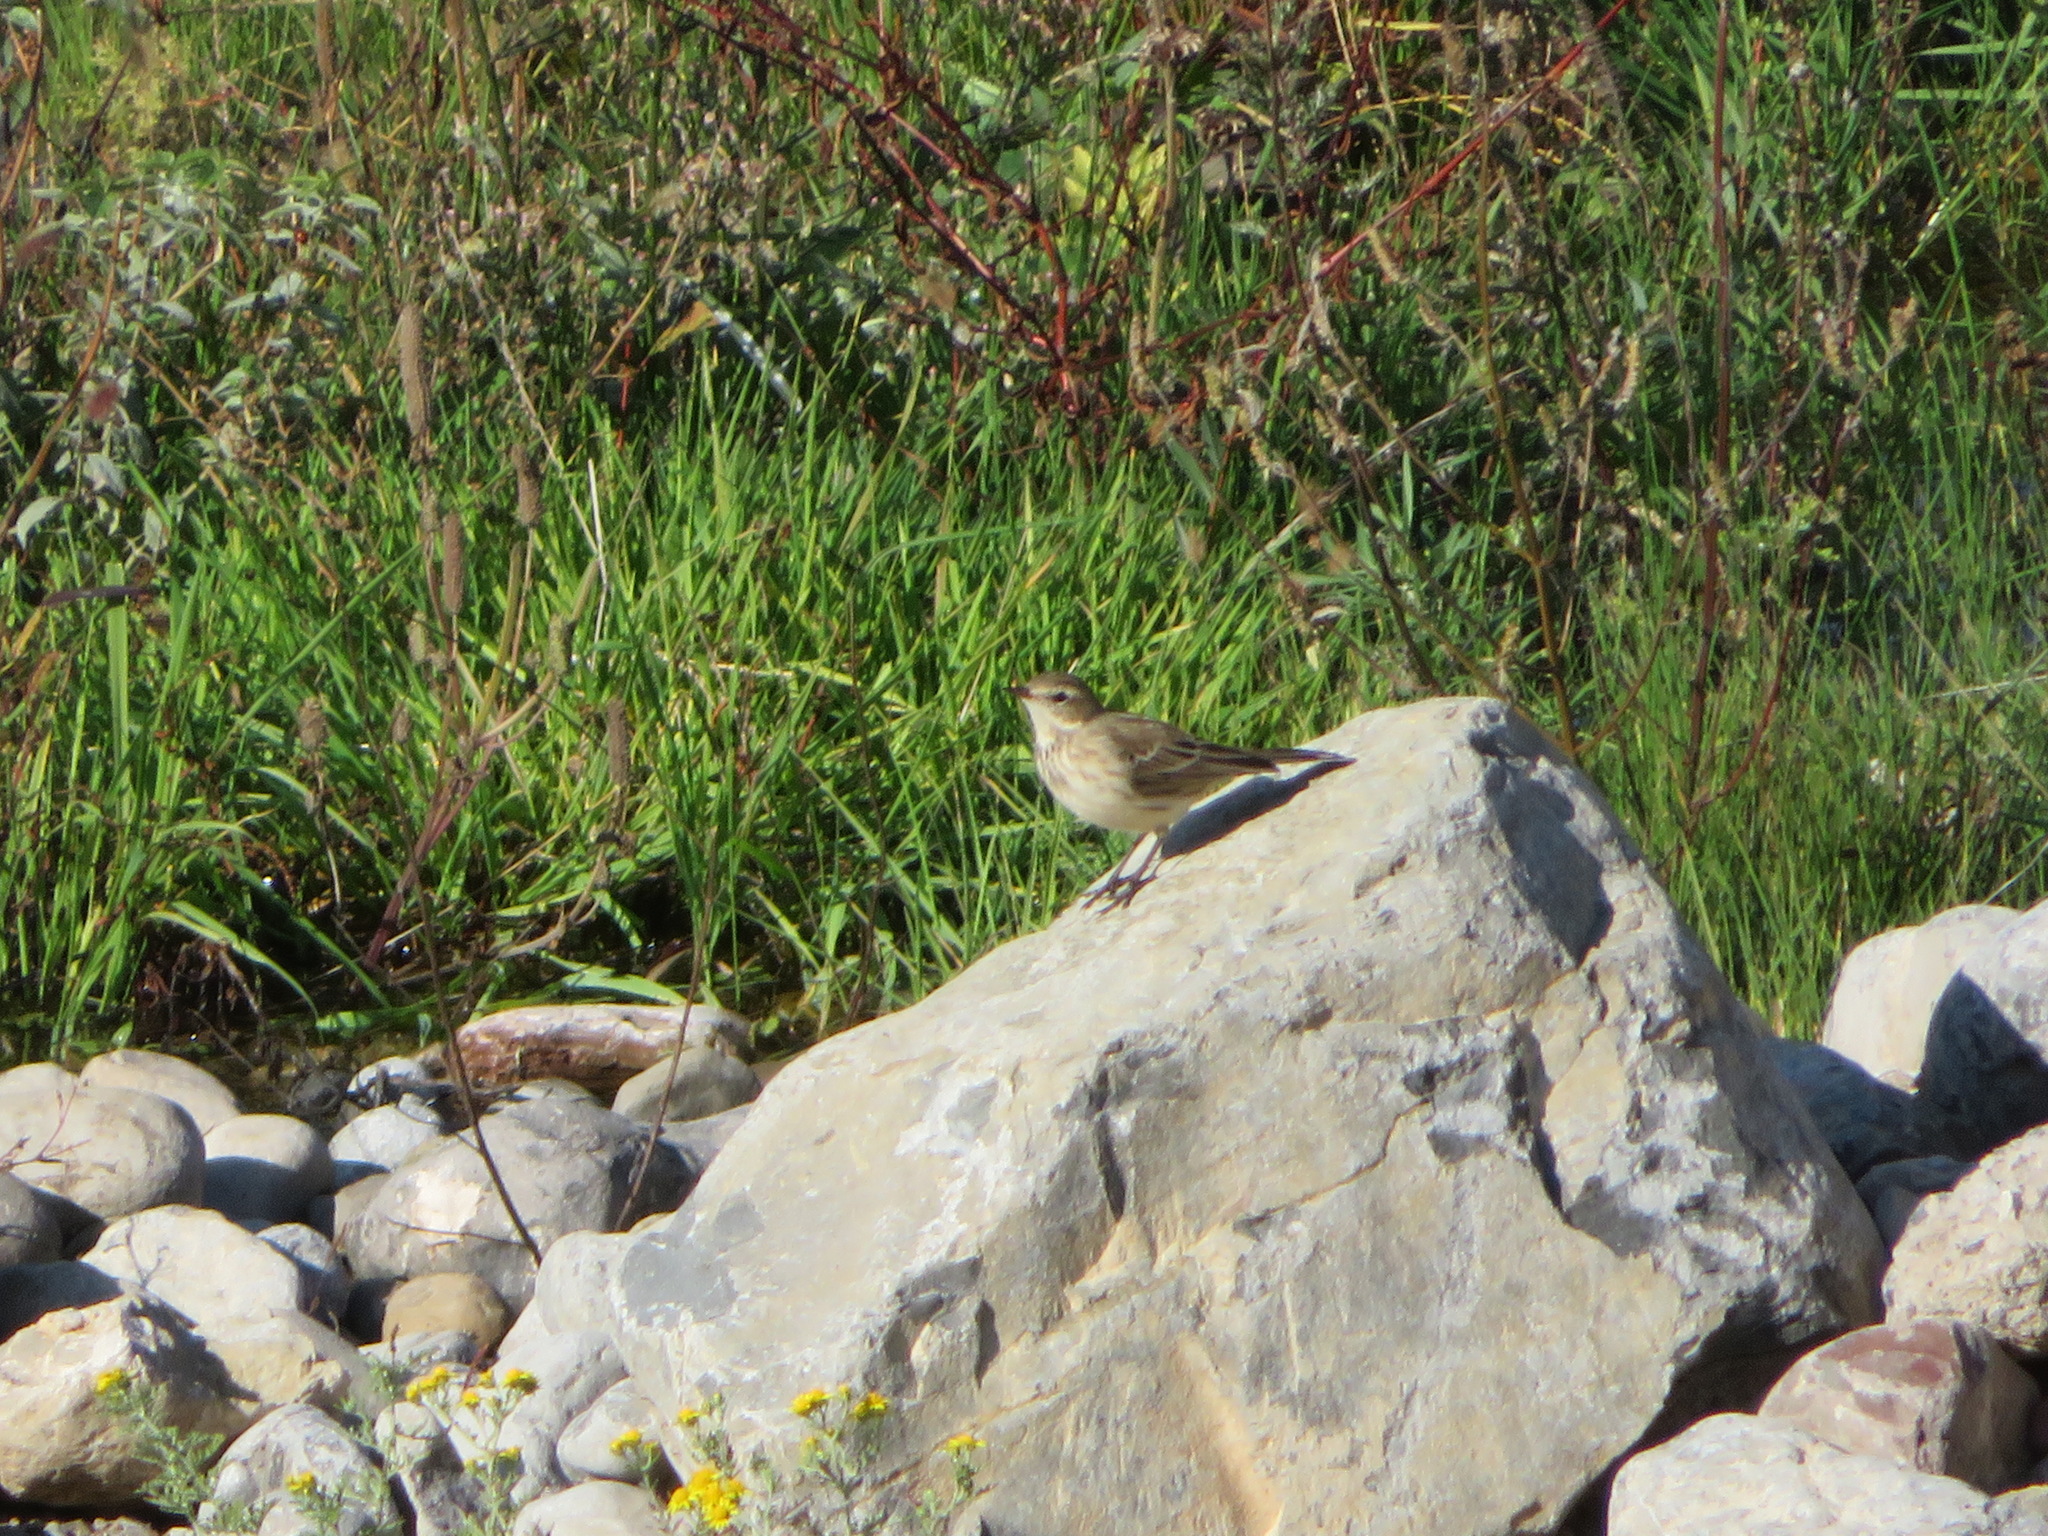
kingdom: Animalia
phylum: Chordata
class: Aves
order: Passeriformes
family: Motacillidae
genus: Anthus
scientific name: Anthus spinoletta
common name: Water pipit
